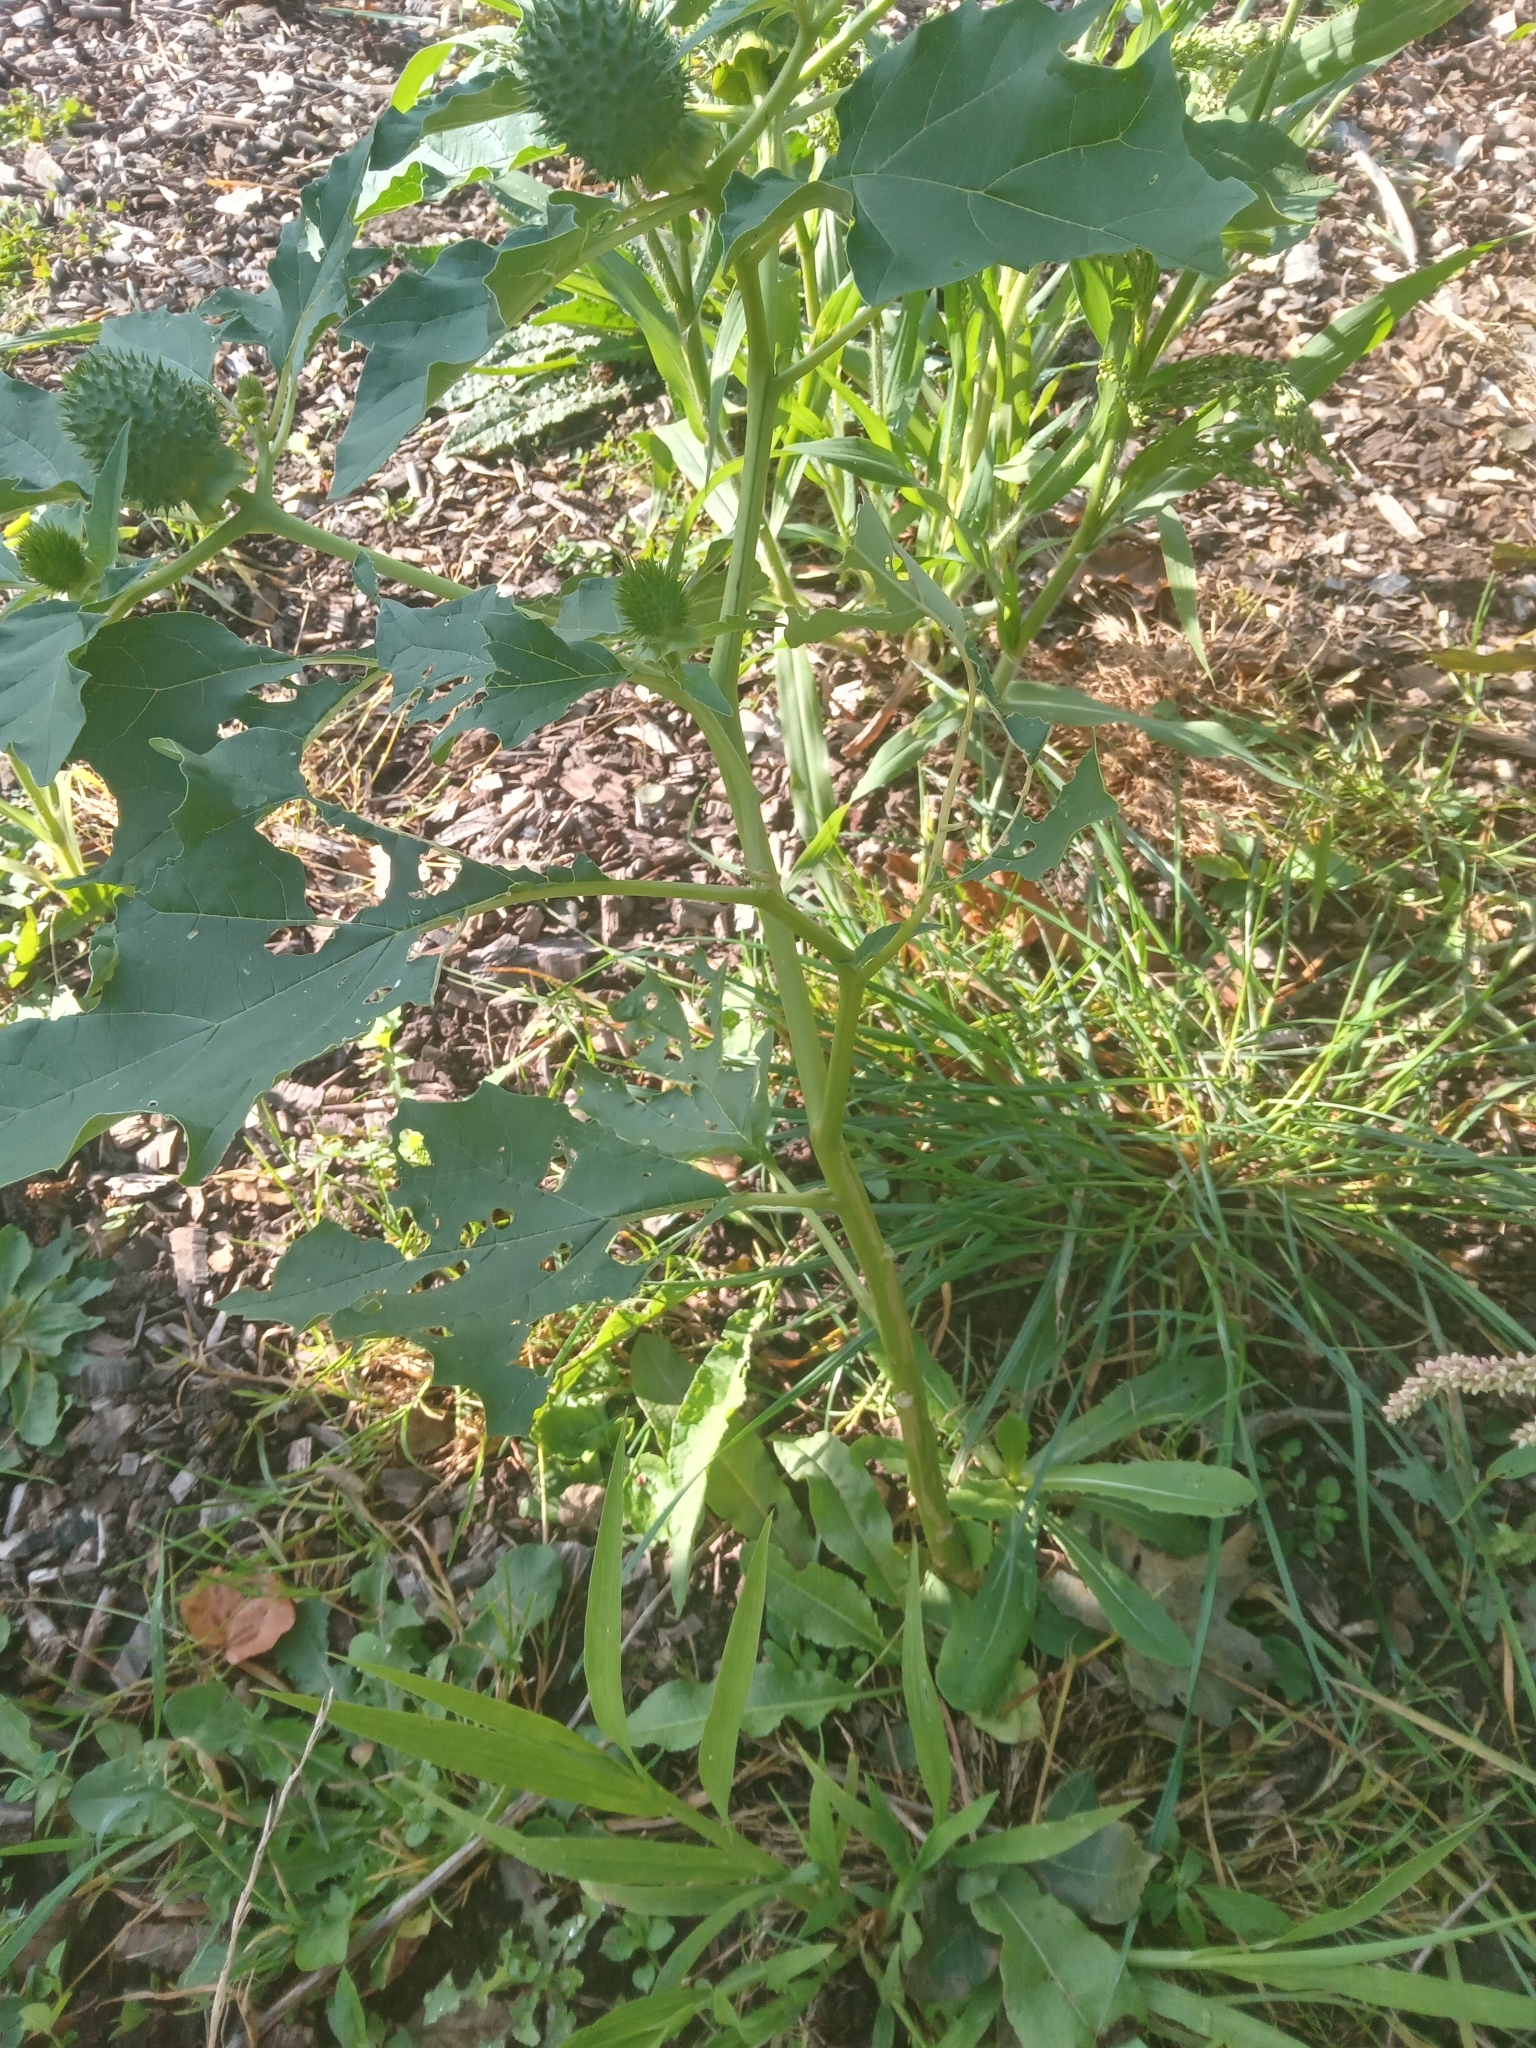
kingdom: Plantae
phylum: Tracheophyta
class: Magnoliopsida
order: Solanales
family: Solanaceae
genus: Datura
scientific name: Datura stramonium
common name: Thorn-apple
